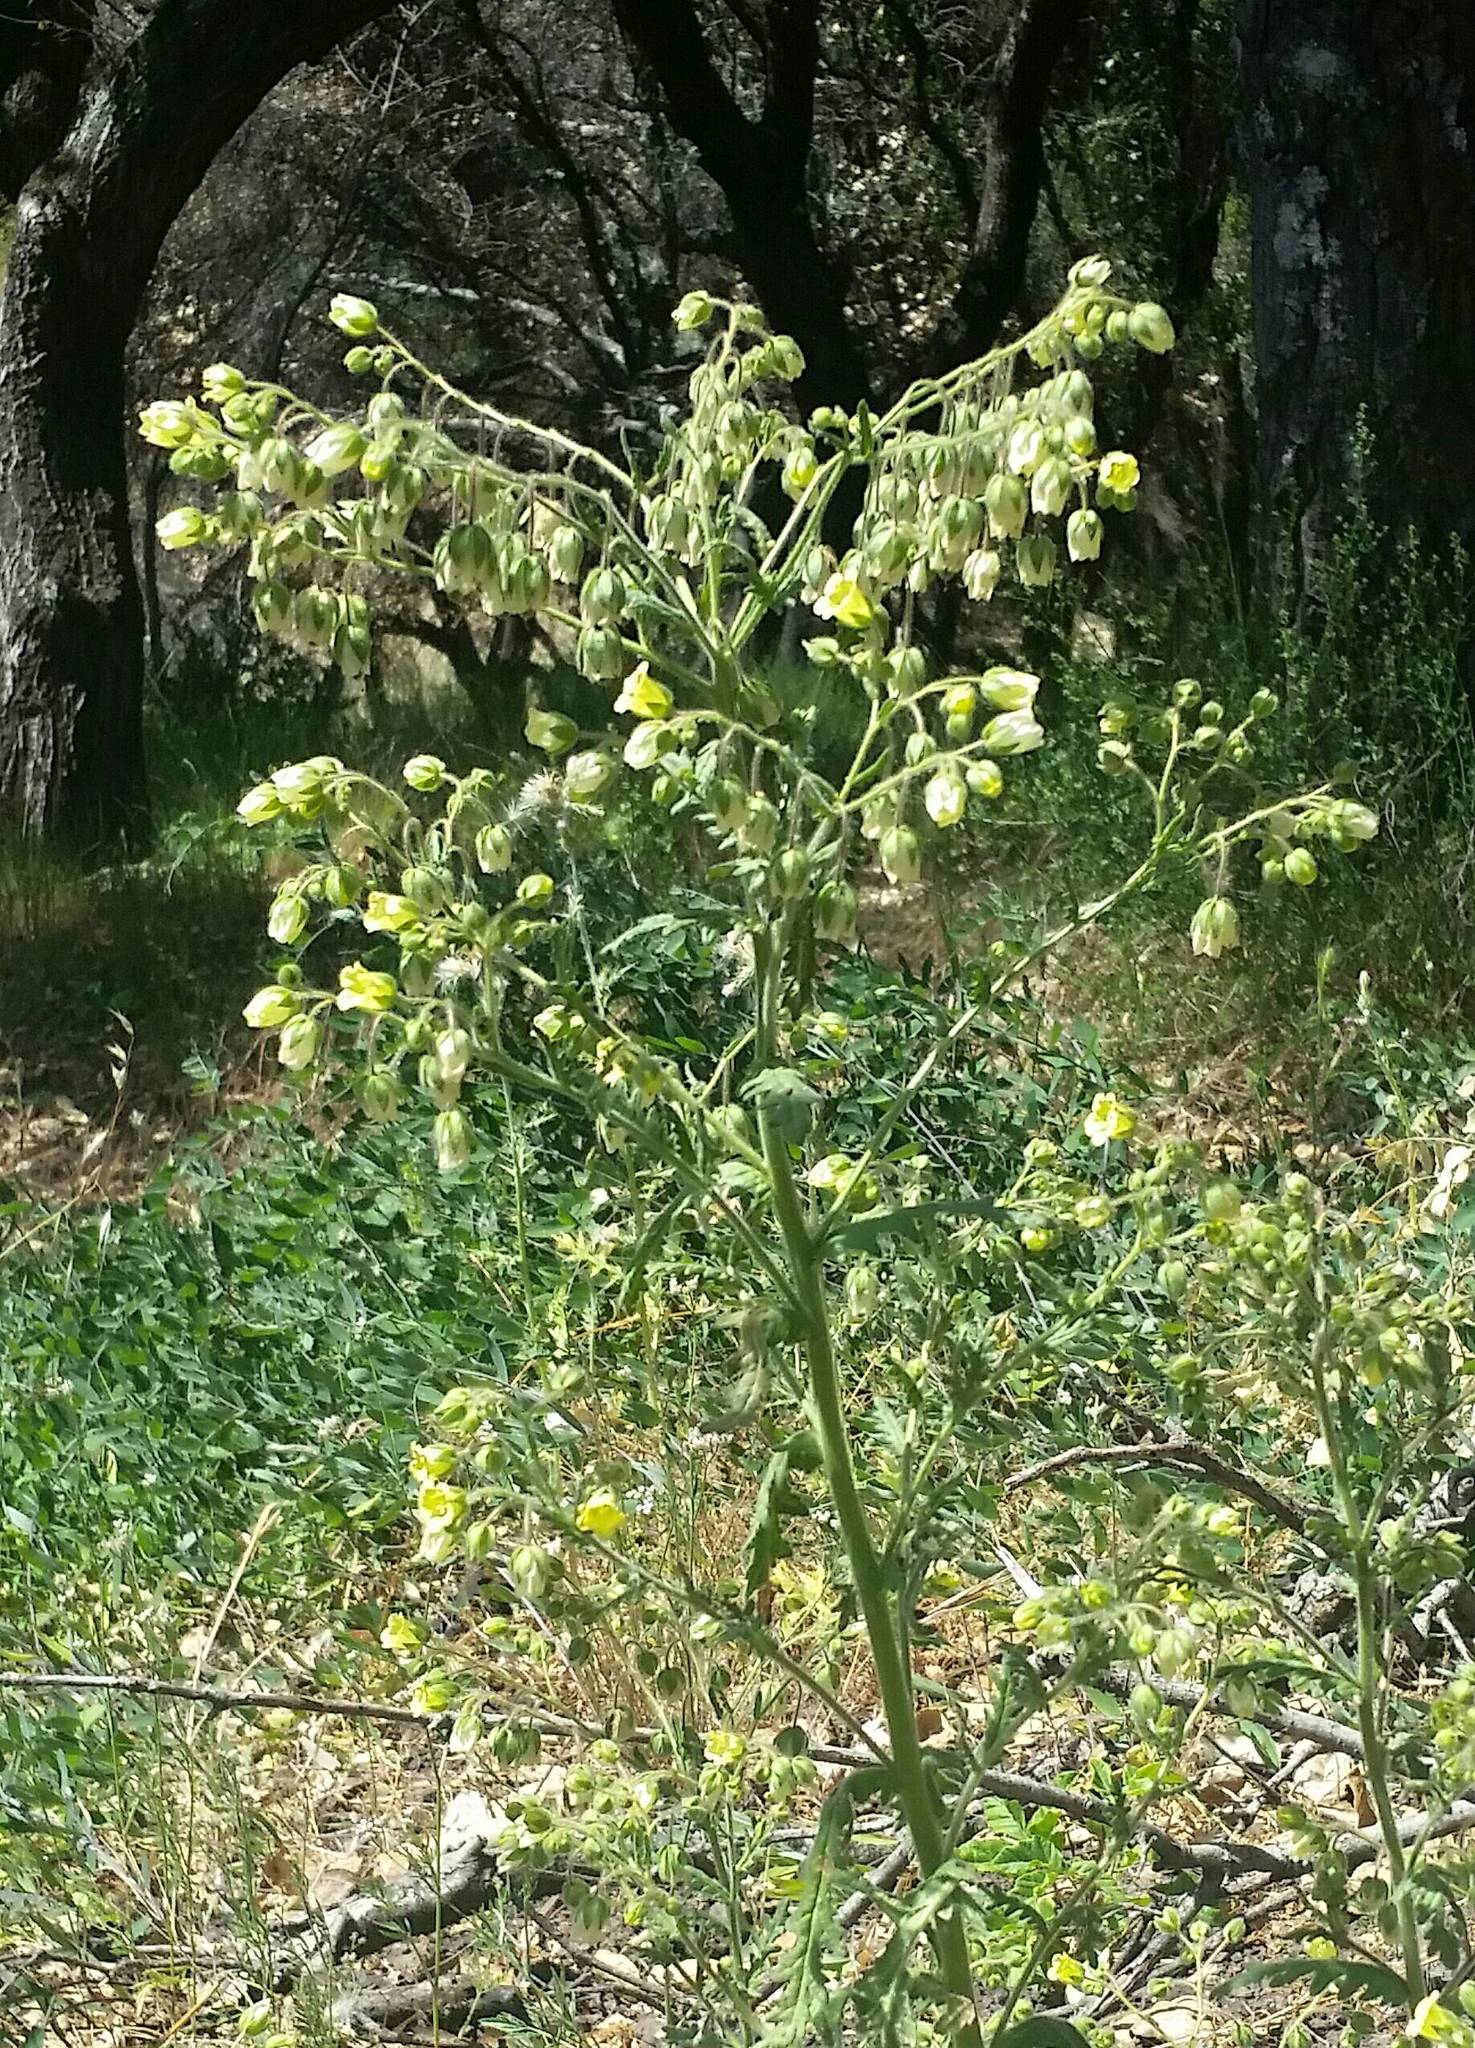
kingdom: Plantae
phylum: Tracheophyta
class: Magnoliopsida
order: Boraginales
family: Hydrophyllaceae
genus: Emmenanthe
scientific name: Emmenanthe penduliflora
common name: Whispering-bells
